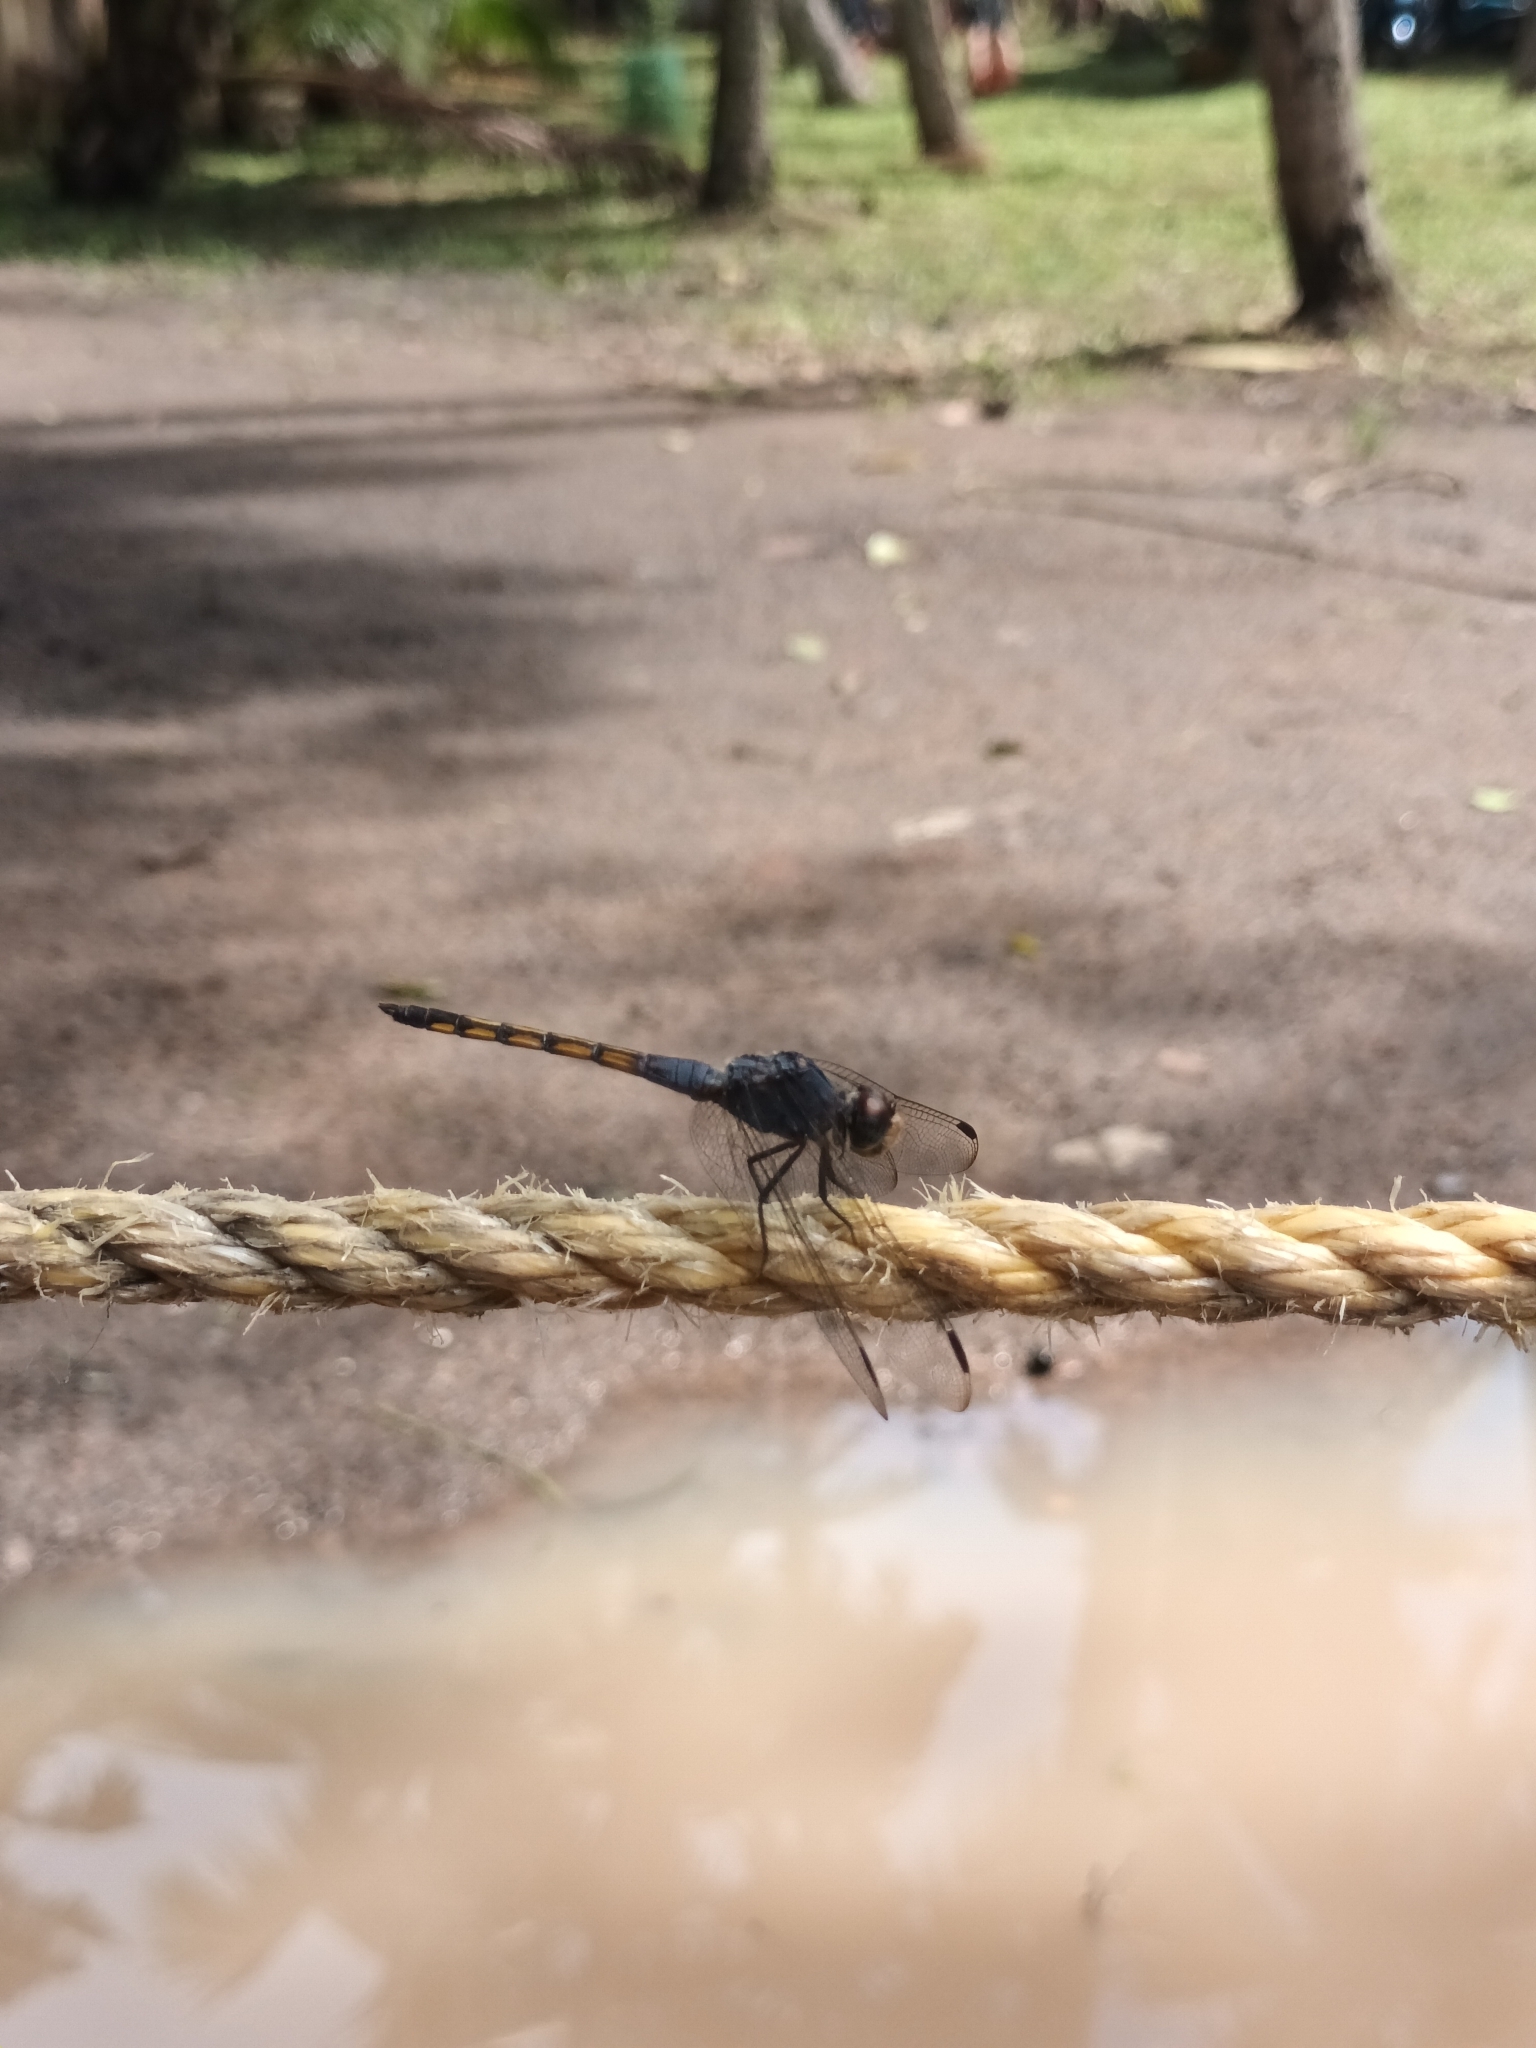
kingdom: Animalia
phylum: Arthropoda
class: Insecta
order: Odonata
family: Libellulidae
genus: Potamarcha
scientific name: Potamarcha congener
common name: Blue chaser
